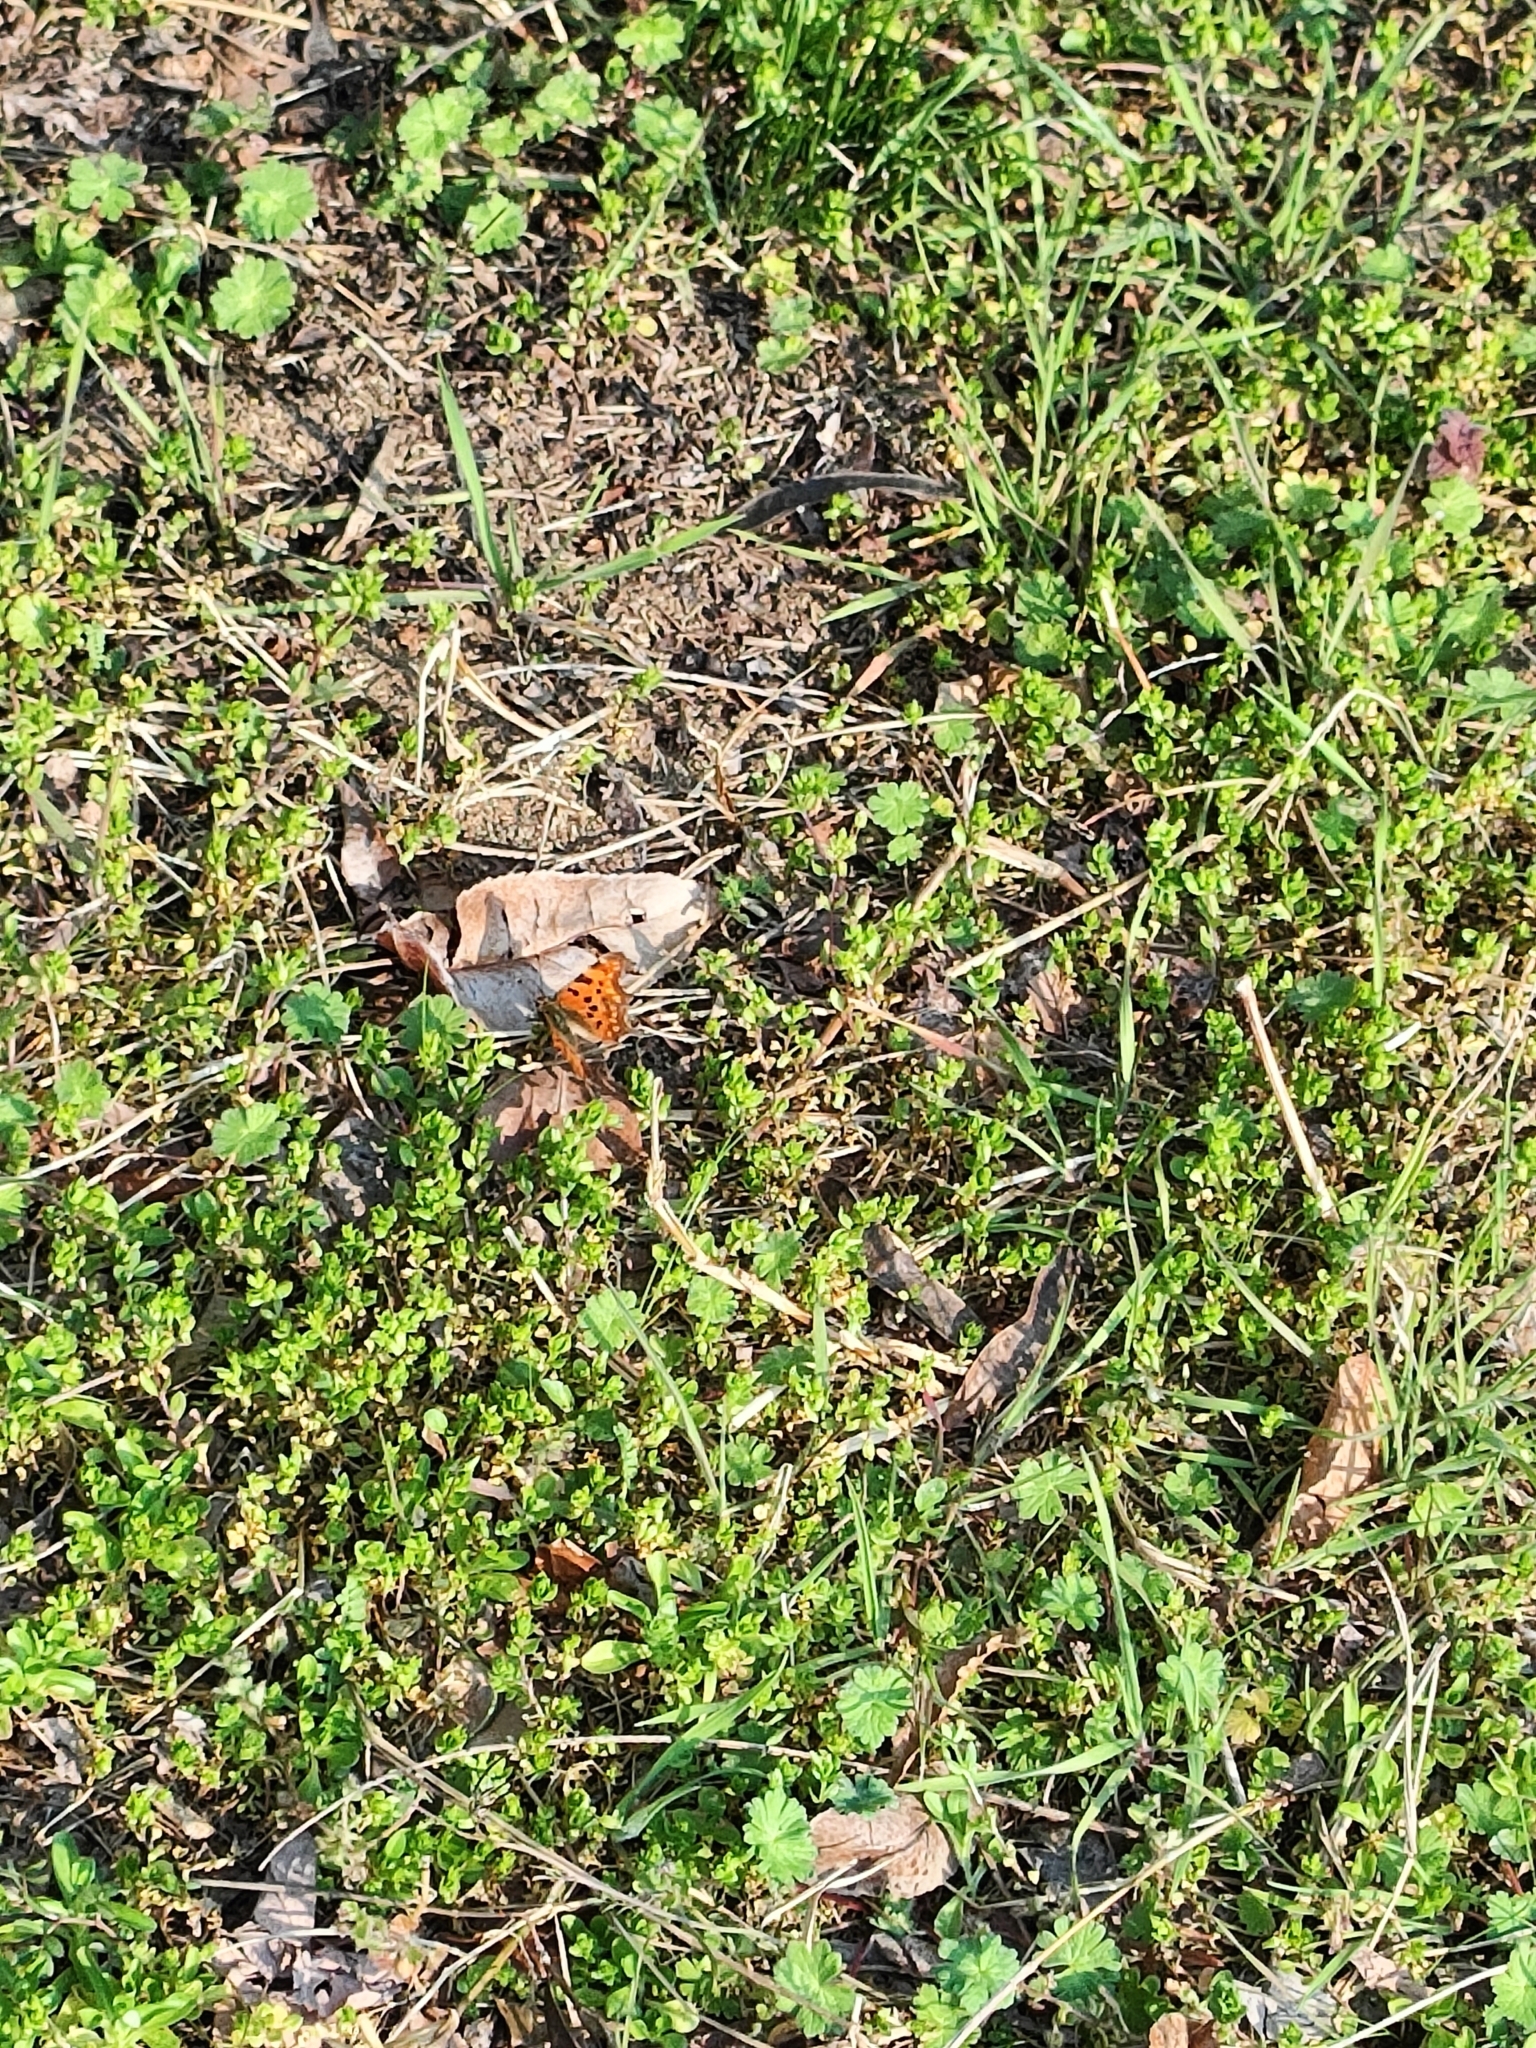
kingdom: Animalia
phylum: Arthropoda
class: Insecta
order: Lepidoptera
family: Nymphalidae
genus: Polygonia
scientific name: Polygonia c-album
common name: Comma
